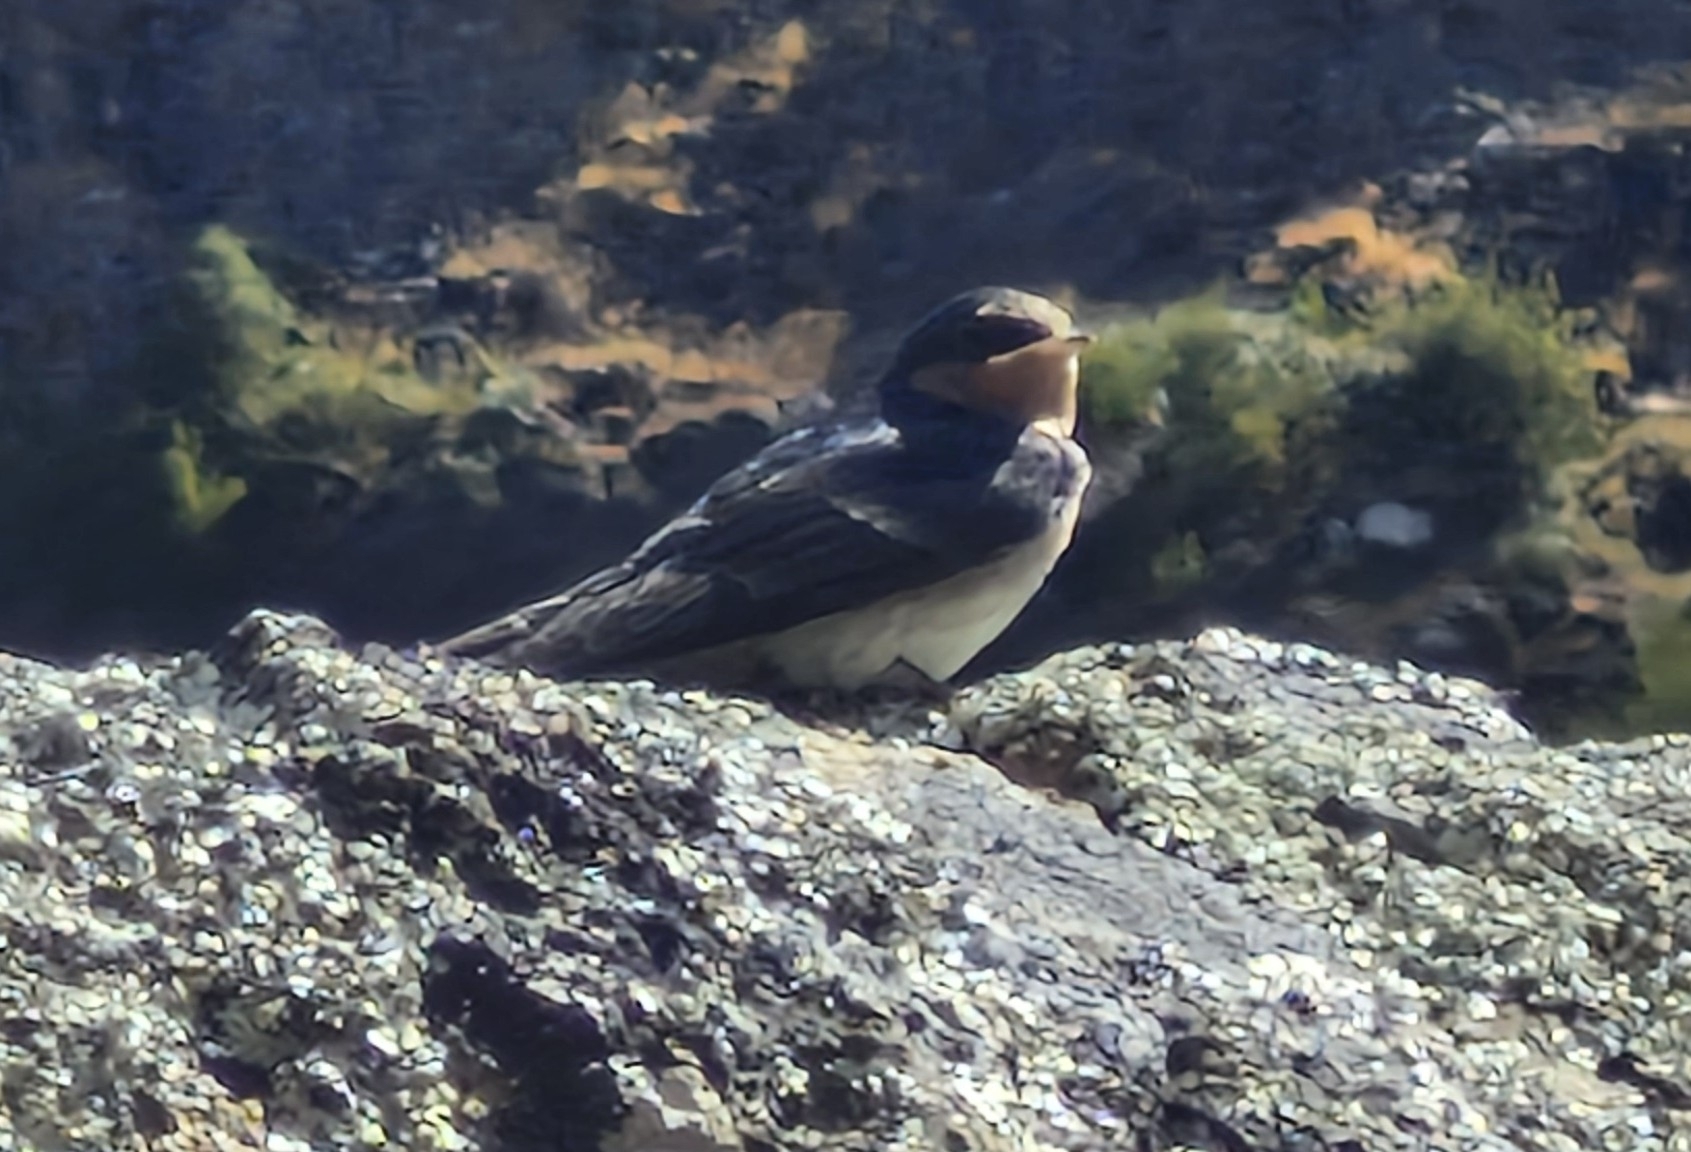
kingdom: Animalia
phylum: Chordata
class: Aves
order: Passeriformes
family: Hirundinidae
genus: Hirundo
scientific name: Hirundo neoxena
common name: Welcome swallow
